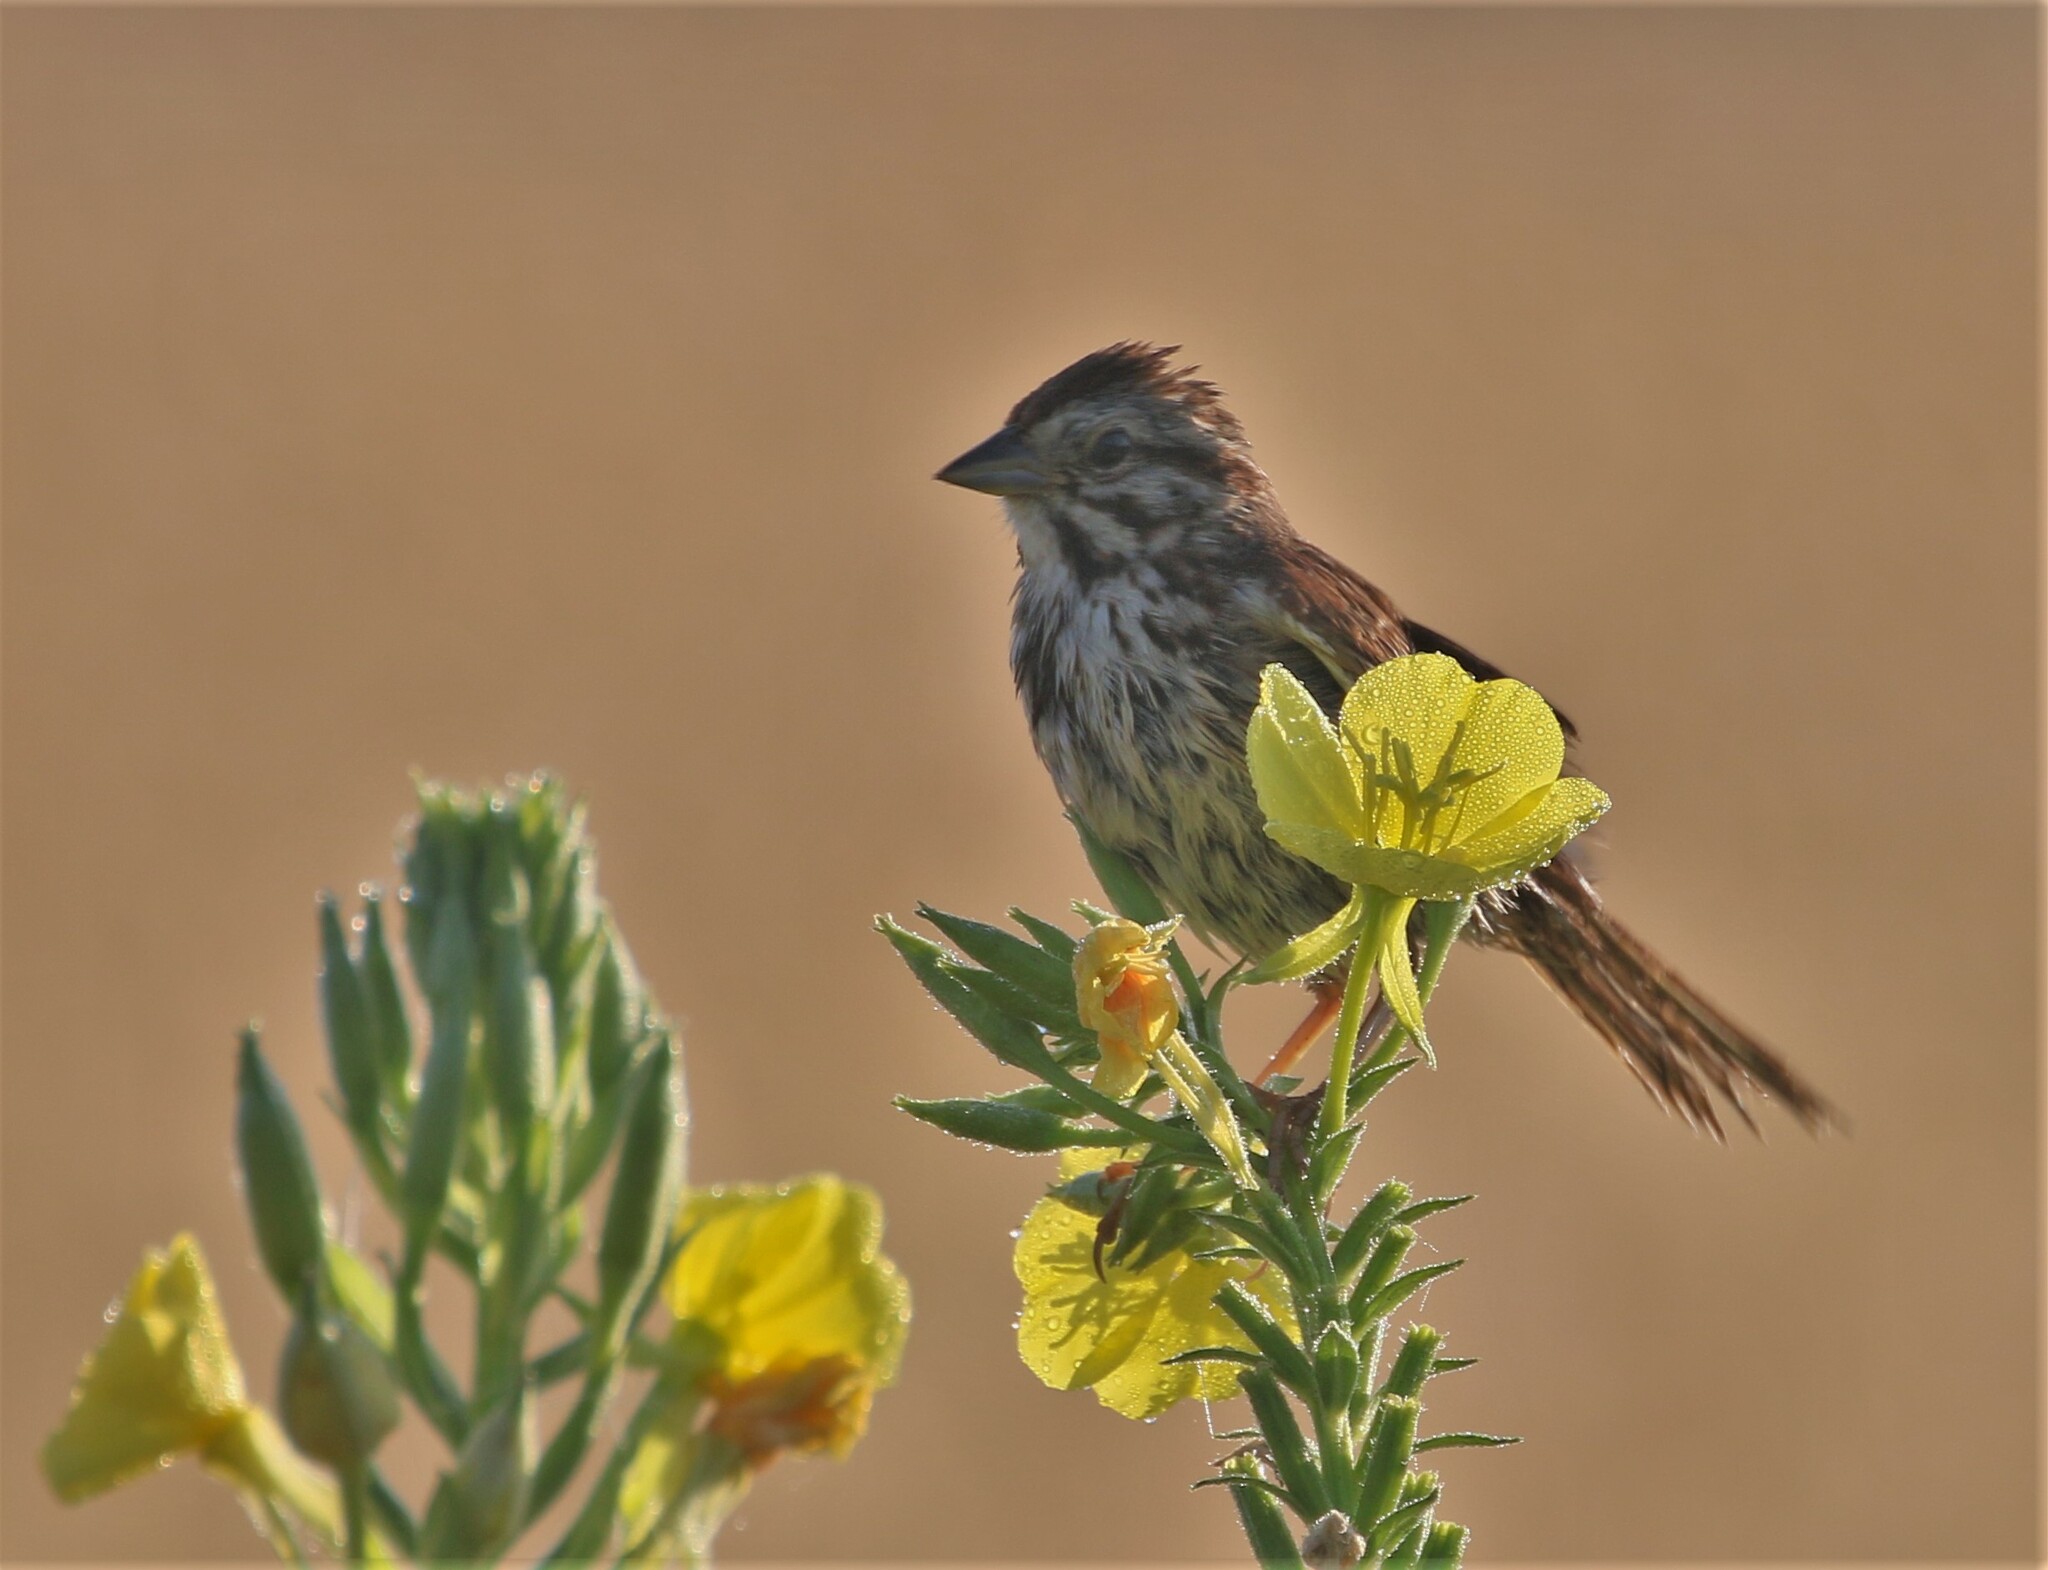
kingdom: Animalia
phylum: Chordata
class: Aves
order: Passeriformes
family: Passerellidae
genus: Melospiza
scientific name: Melospiza melodia
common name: Song sparrow
